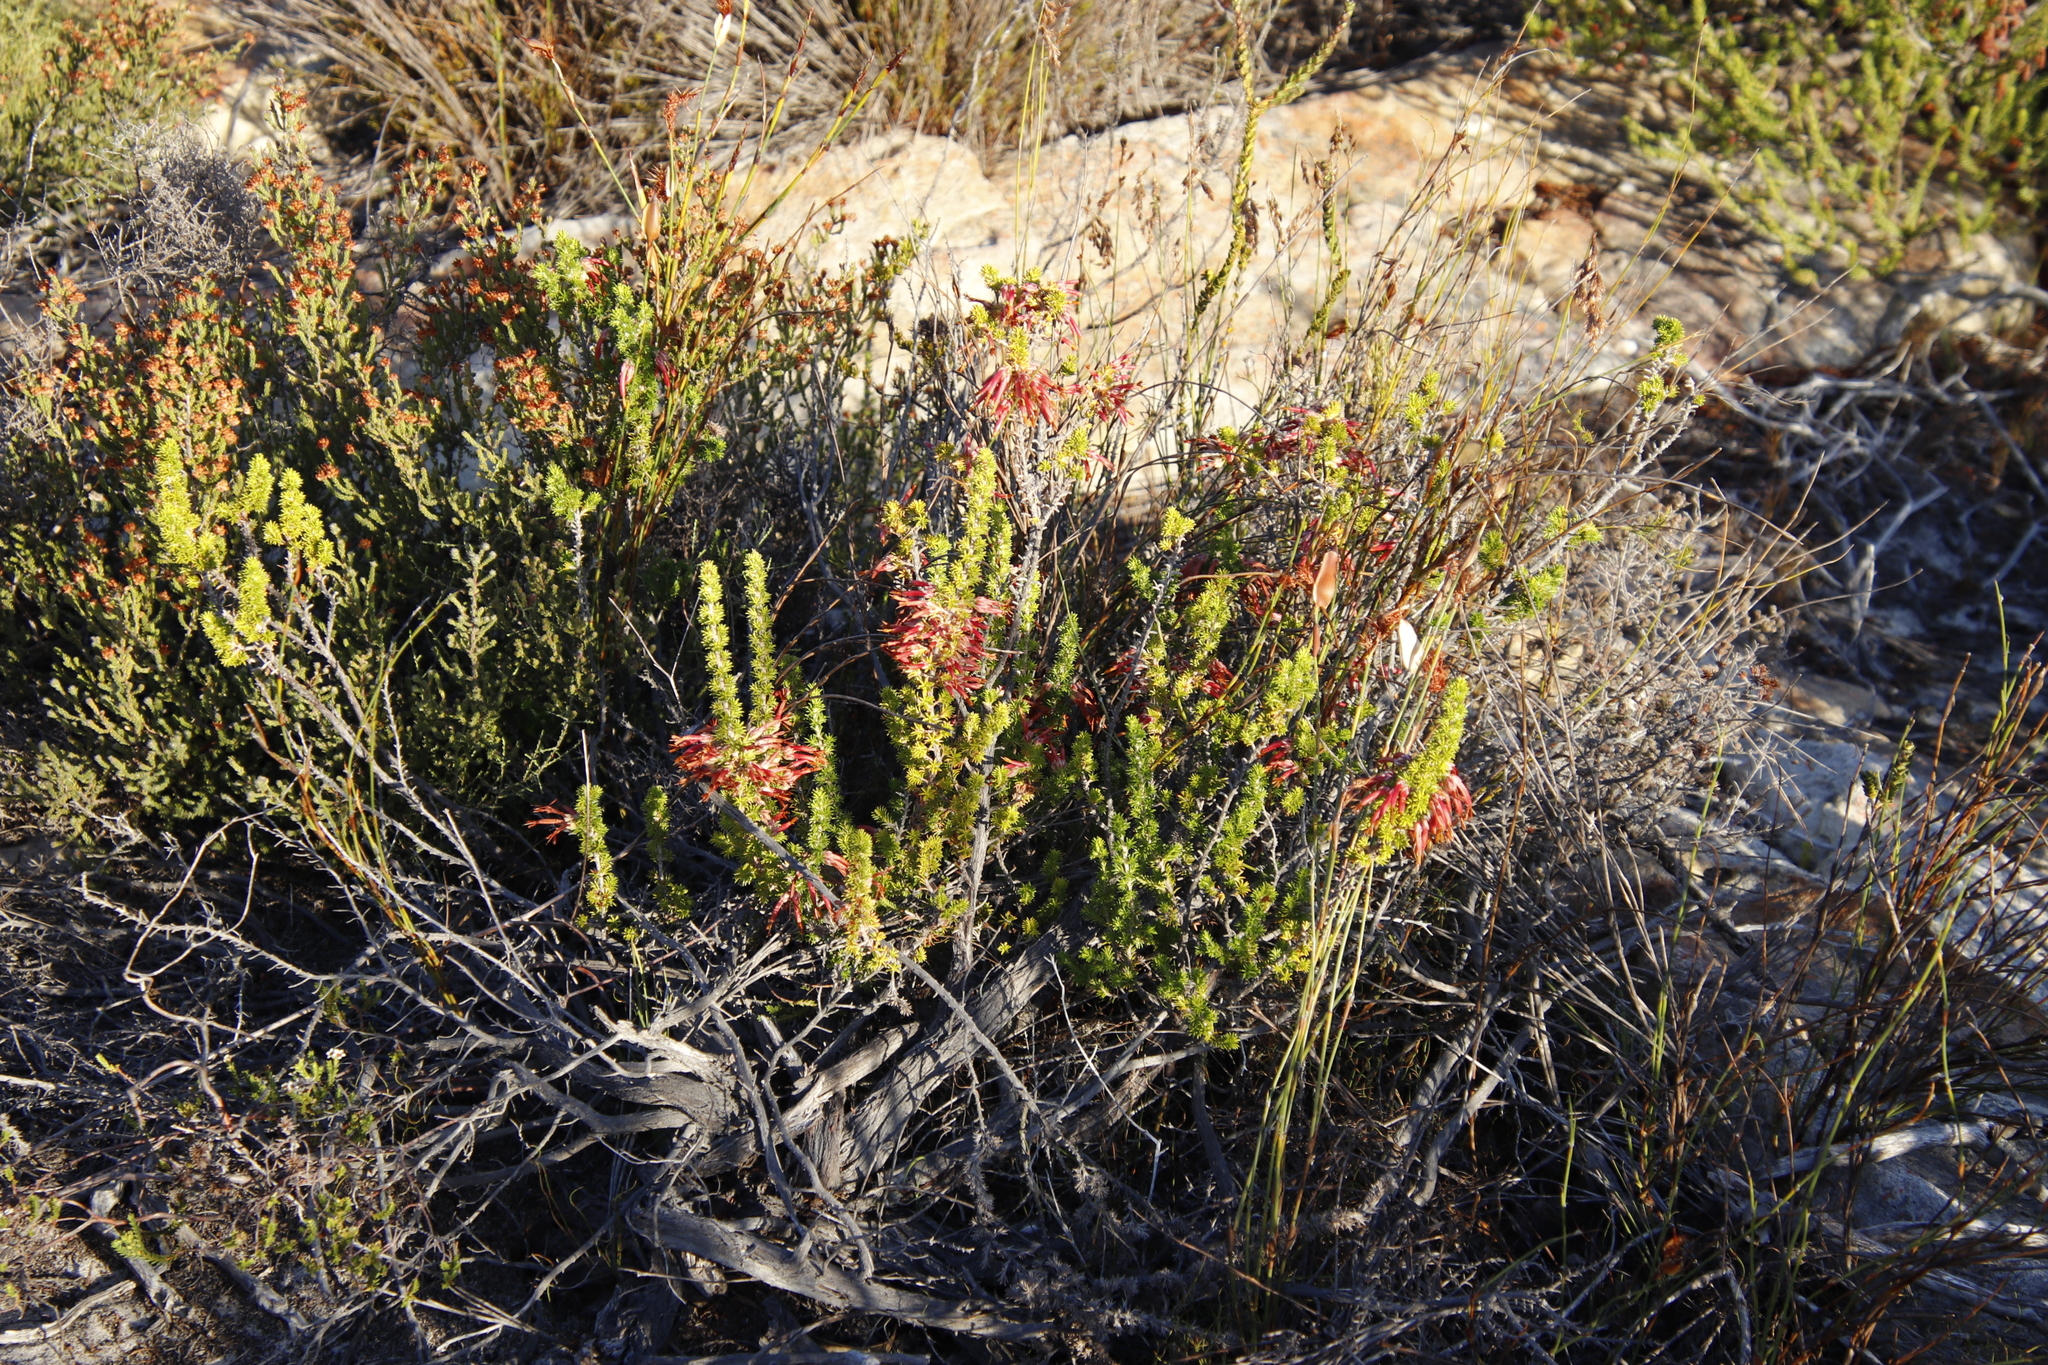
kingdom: Plantae
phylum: Tracheophyta
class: Magnoliopsida
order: Ericales
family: Ericaceae
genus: Erica
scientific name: Erica coccinea
